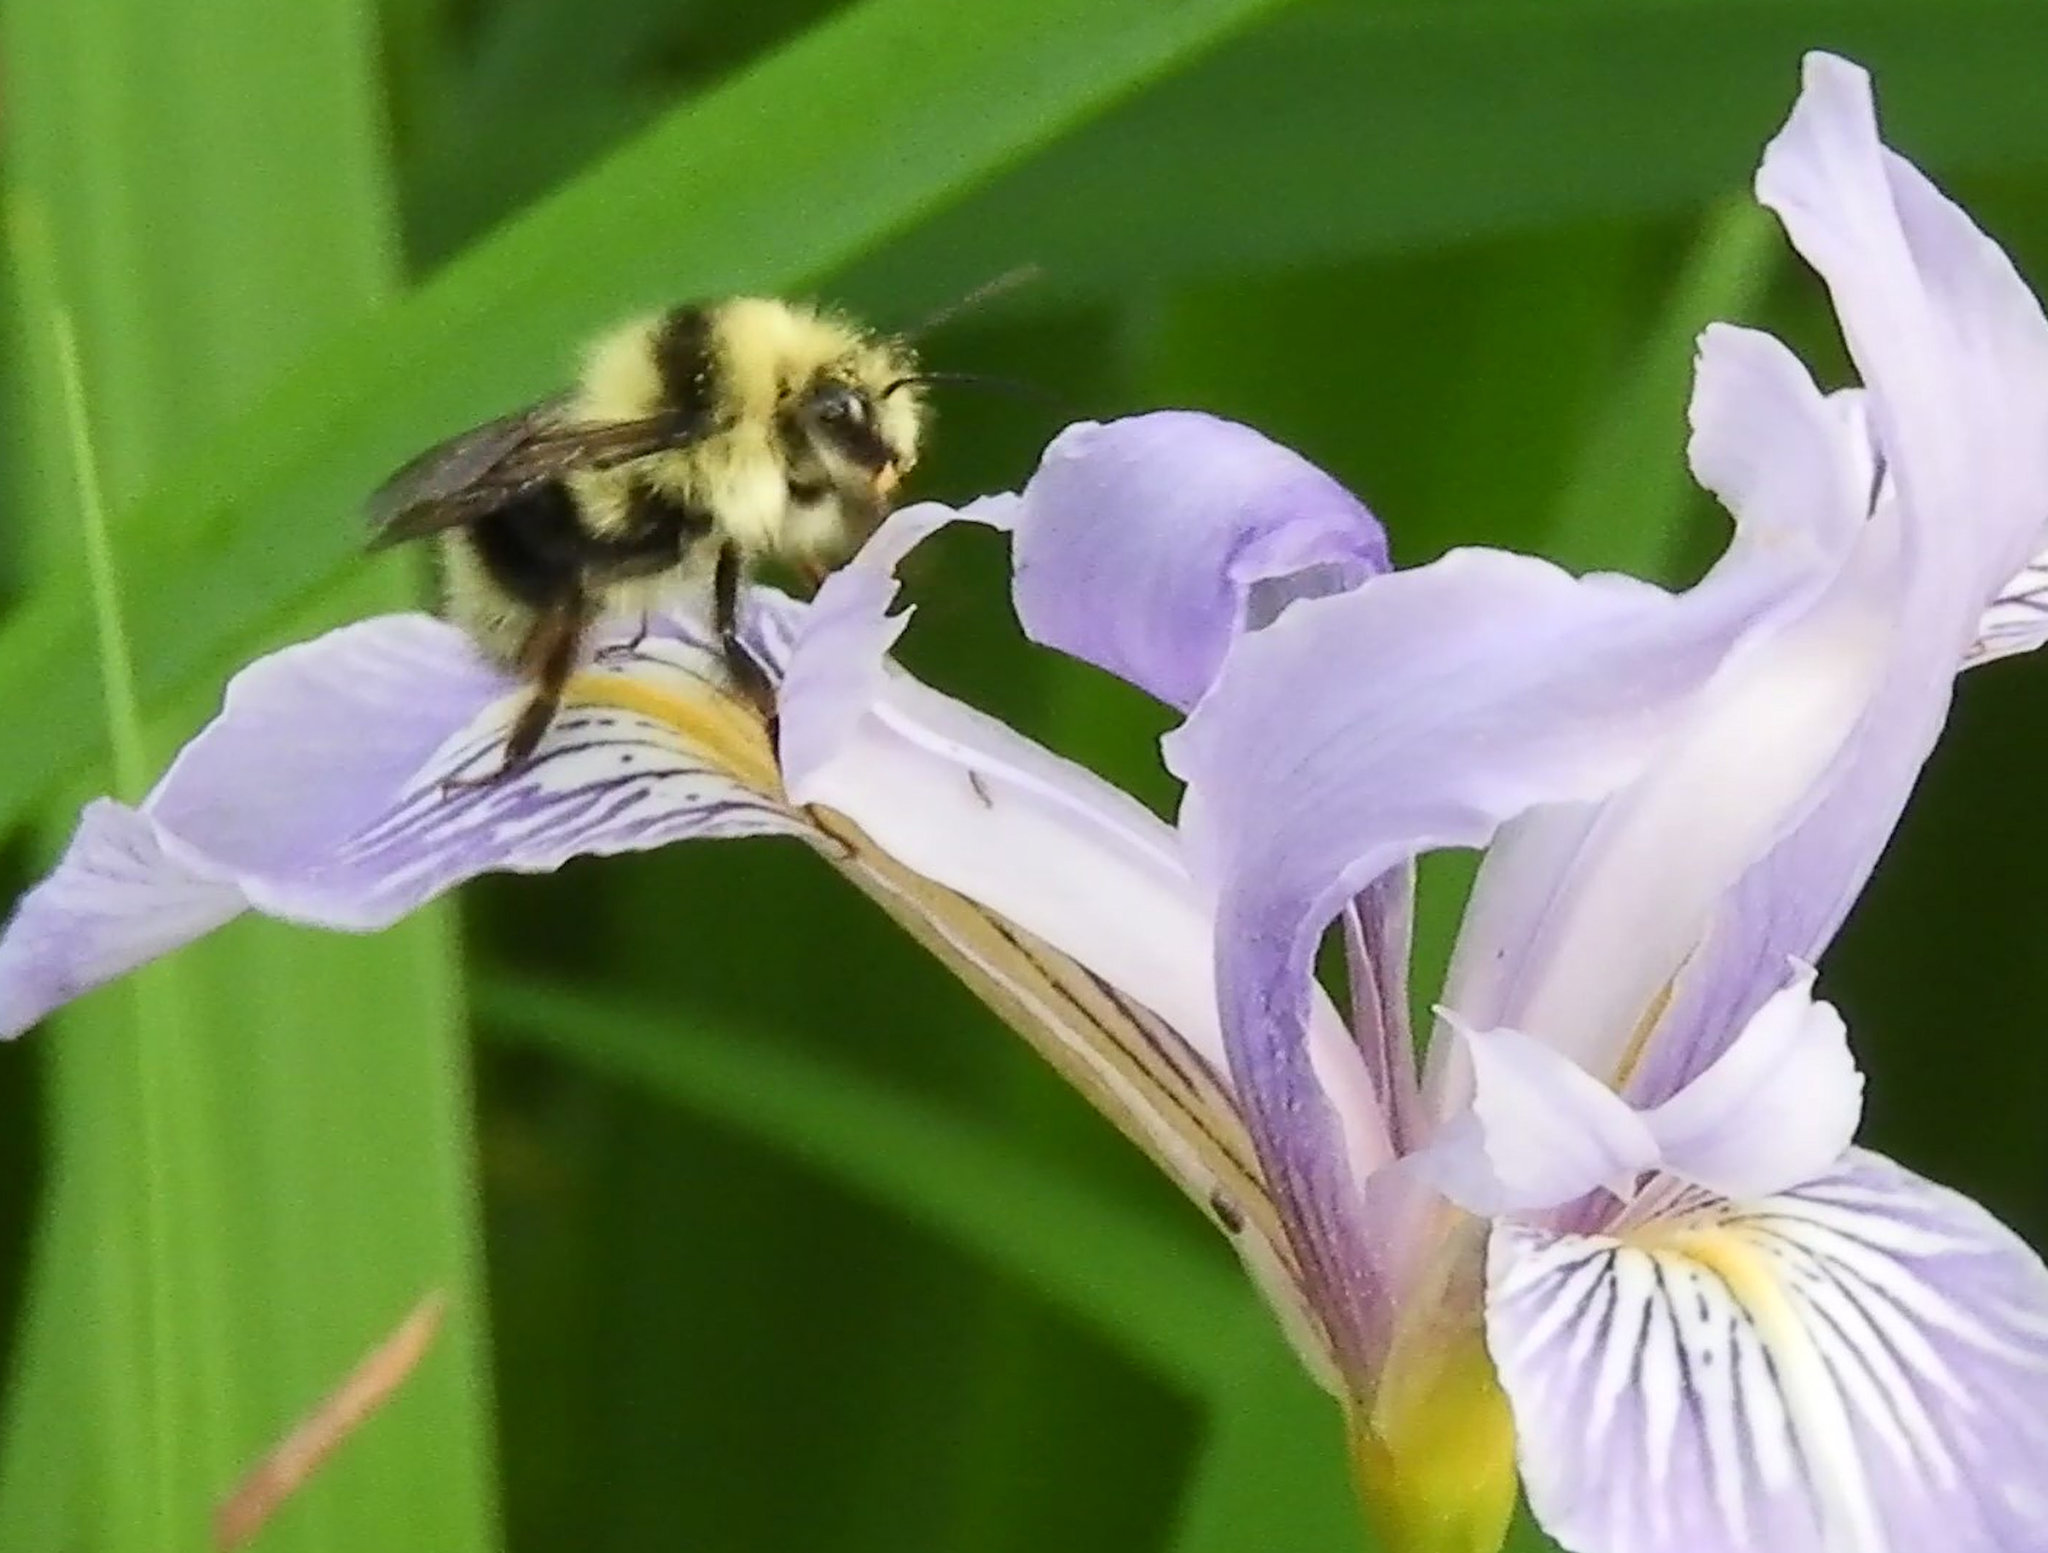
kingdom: Animalia
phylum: Arthropoda
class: Insecta
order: Hymenoptera
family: Apidae
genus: Bombus
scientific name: Bombus melanopygus
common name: Black tail bumble bee
